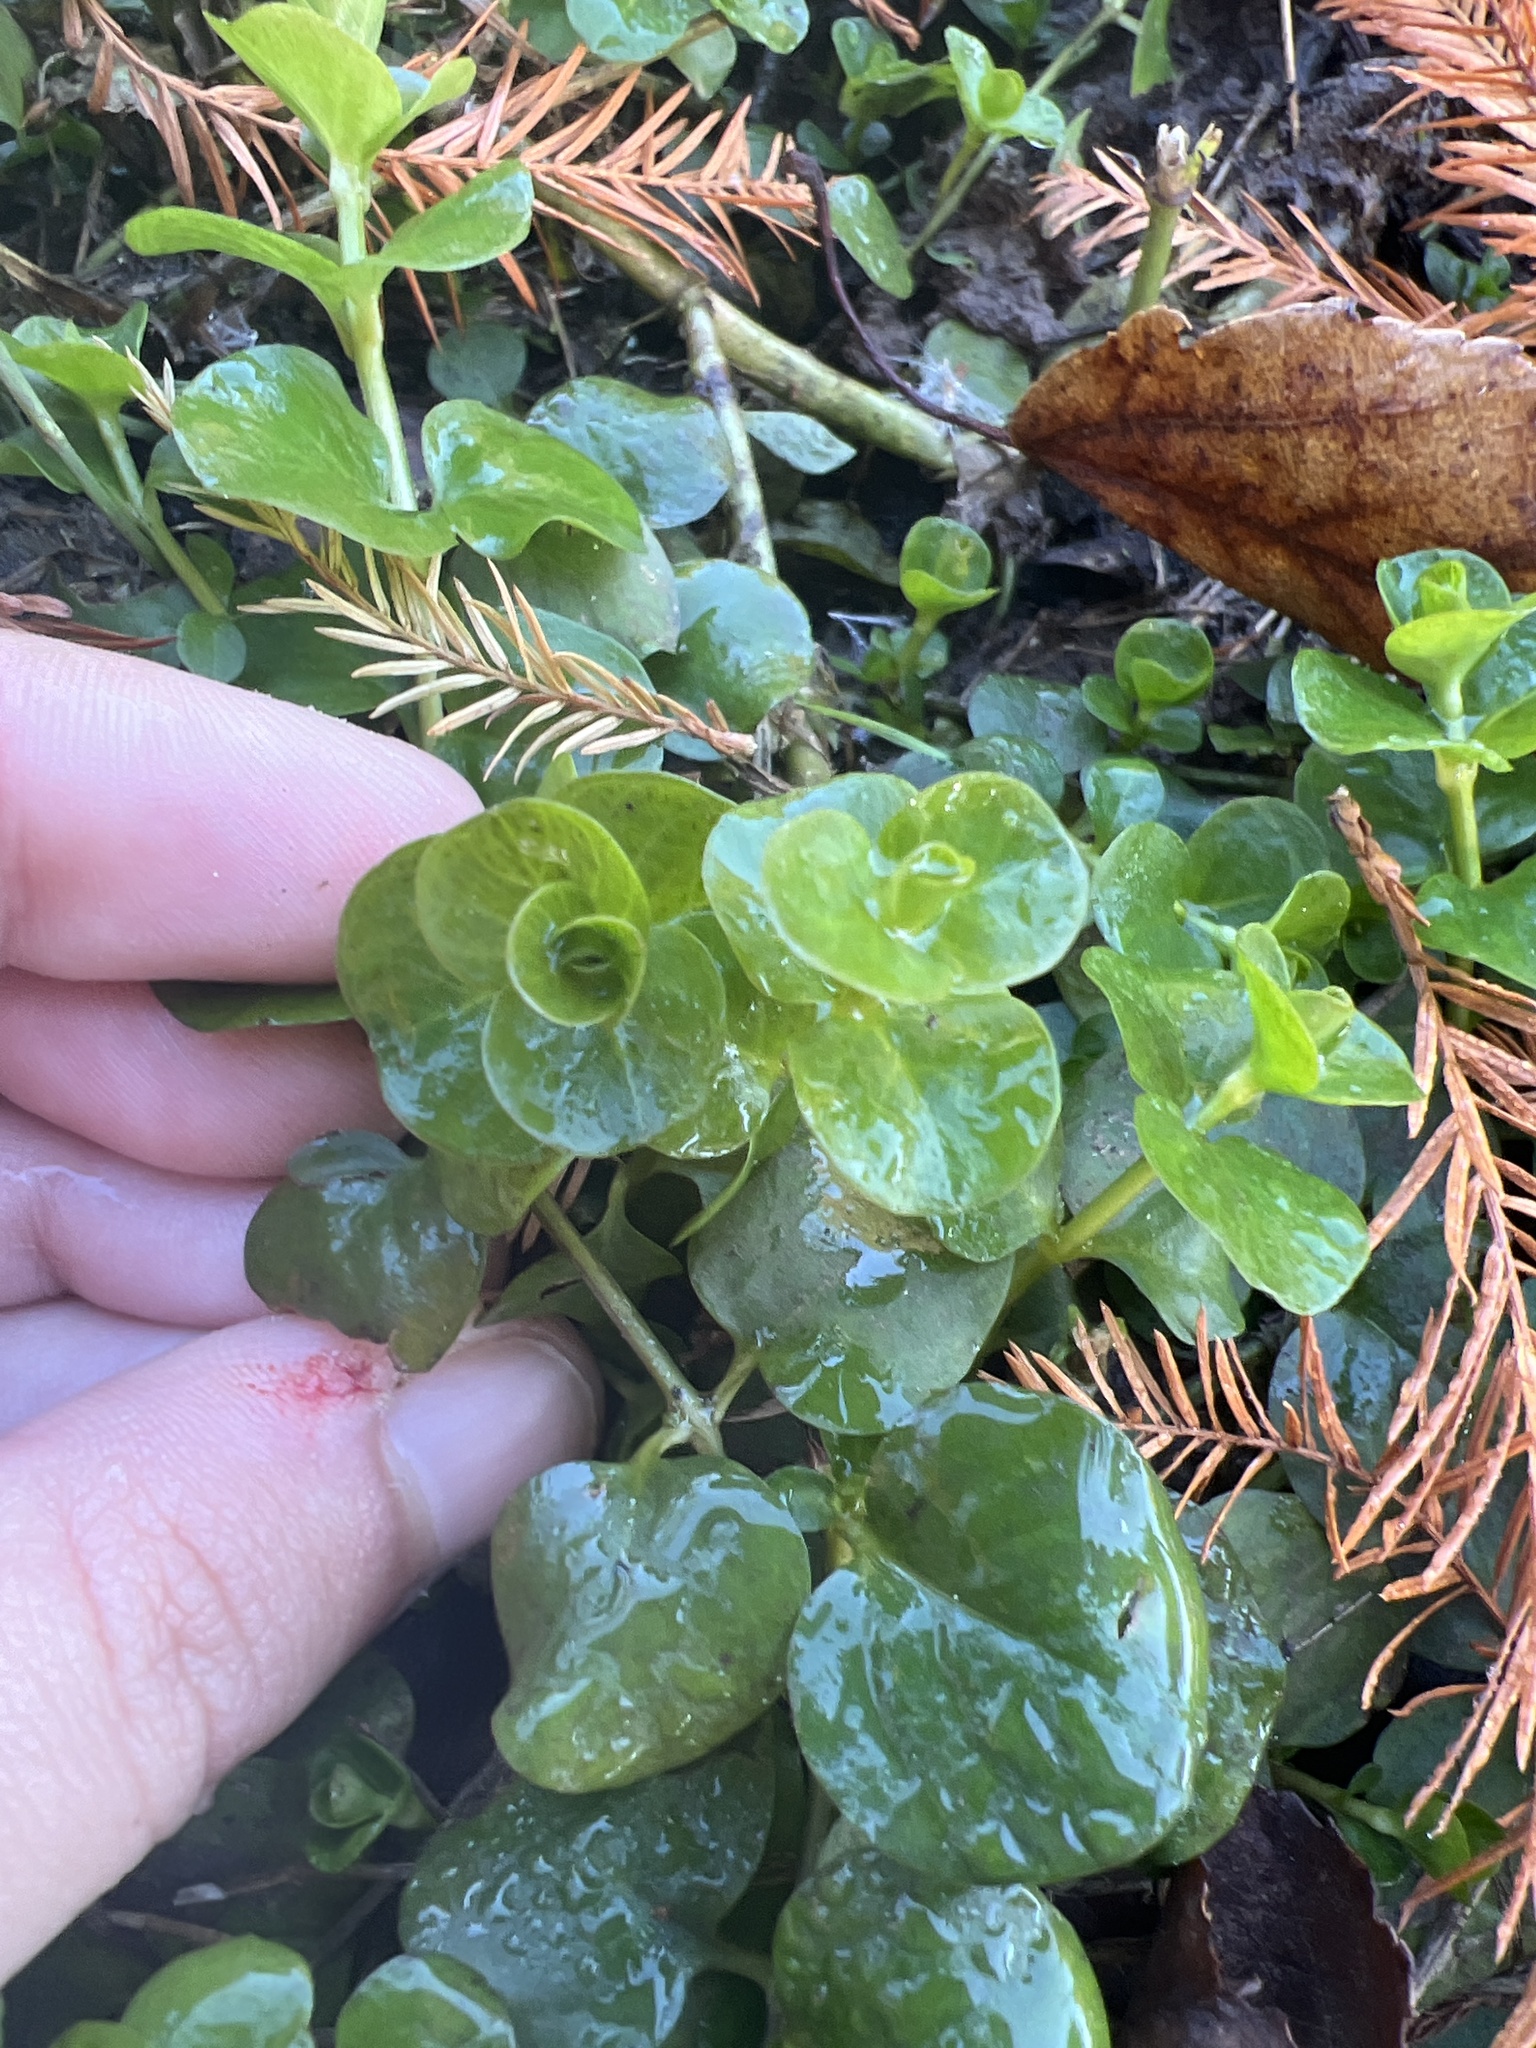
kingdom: Plantae
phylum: Tracheophyta
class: Magnoliopsida
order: Ericales
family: Primulaceae
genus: Lysimachia
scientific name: Lysimachia nummularia
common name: Moneywort
